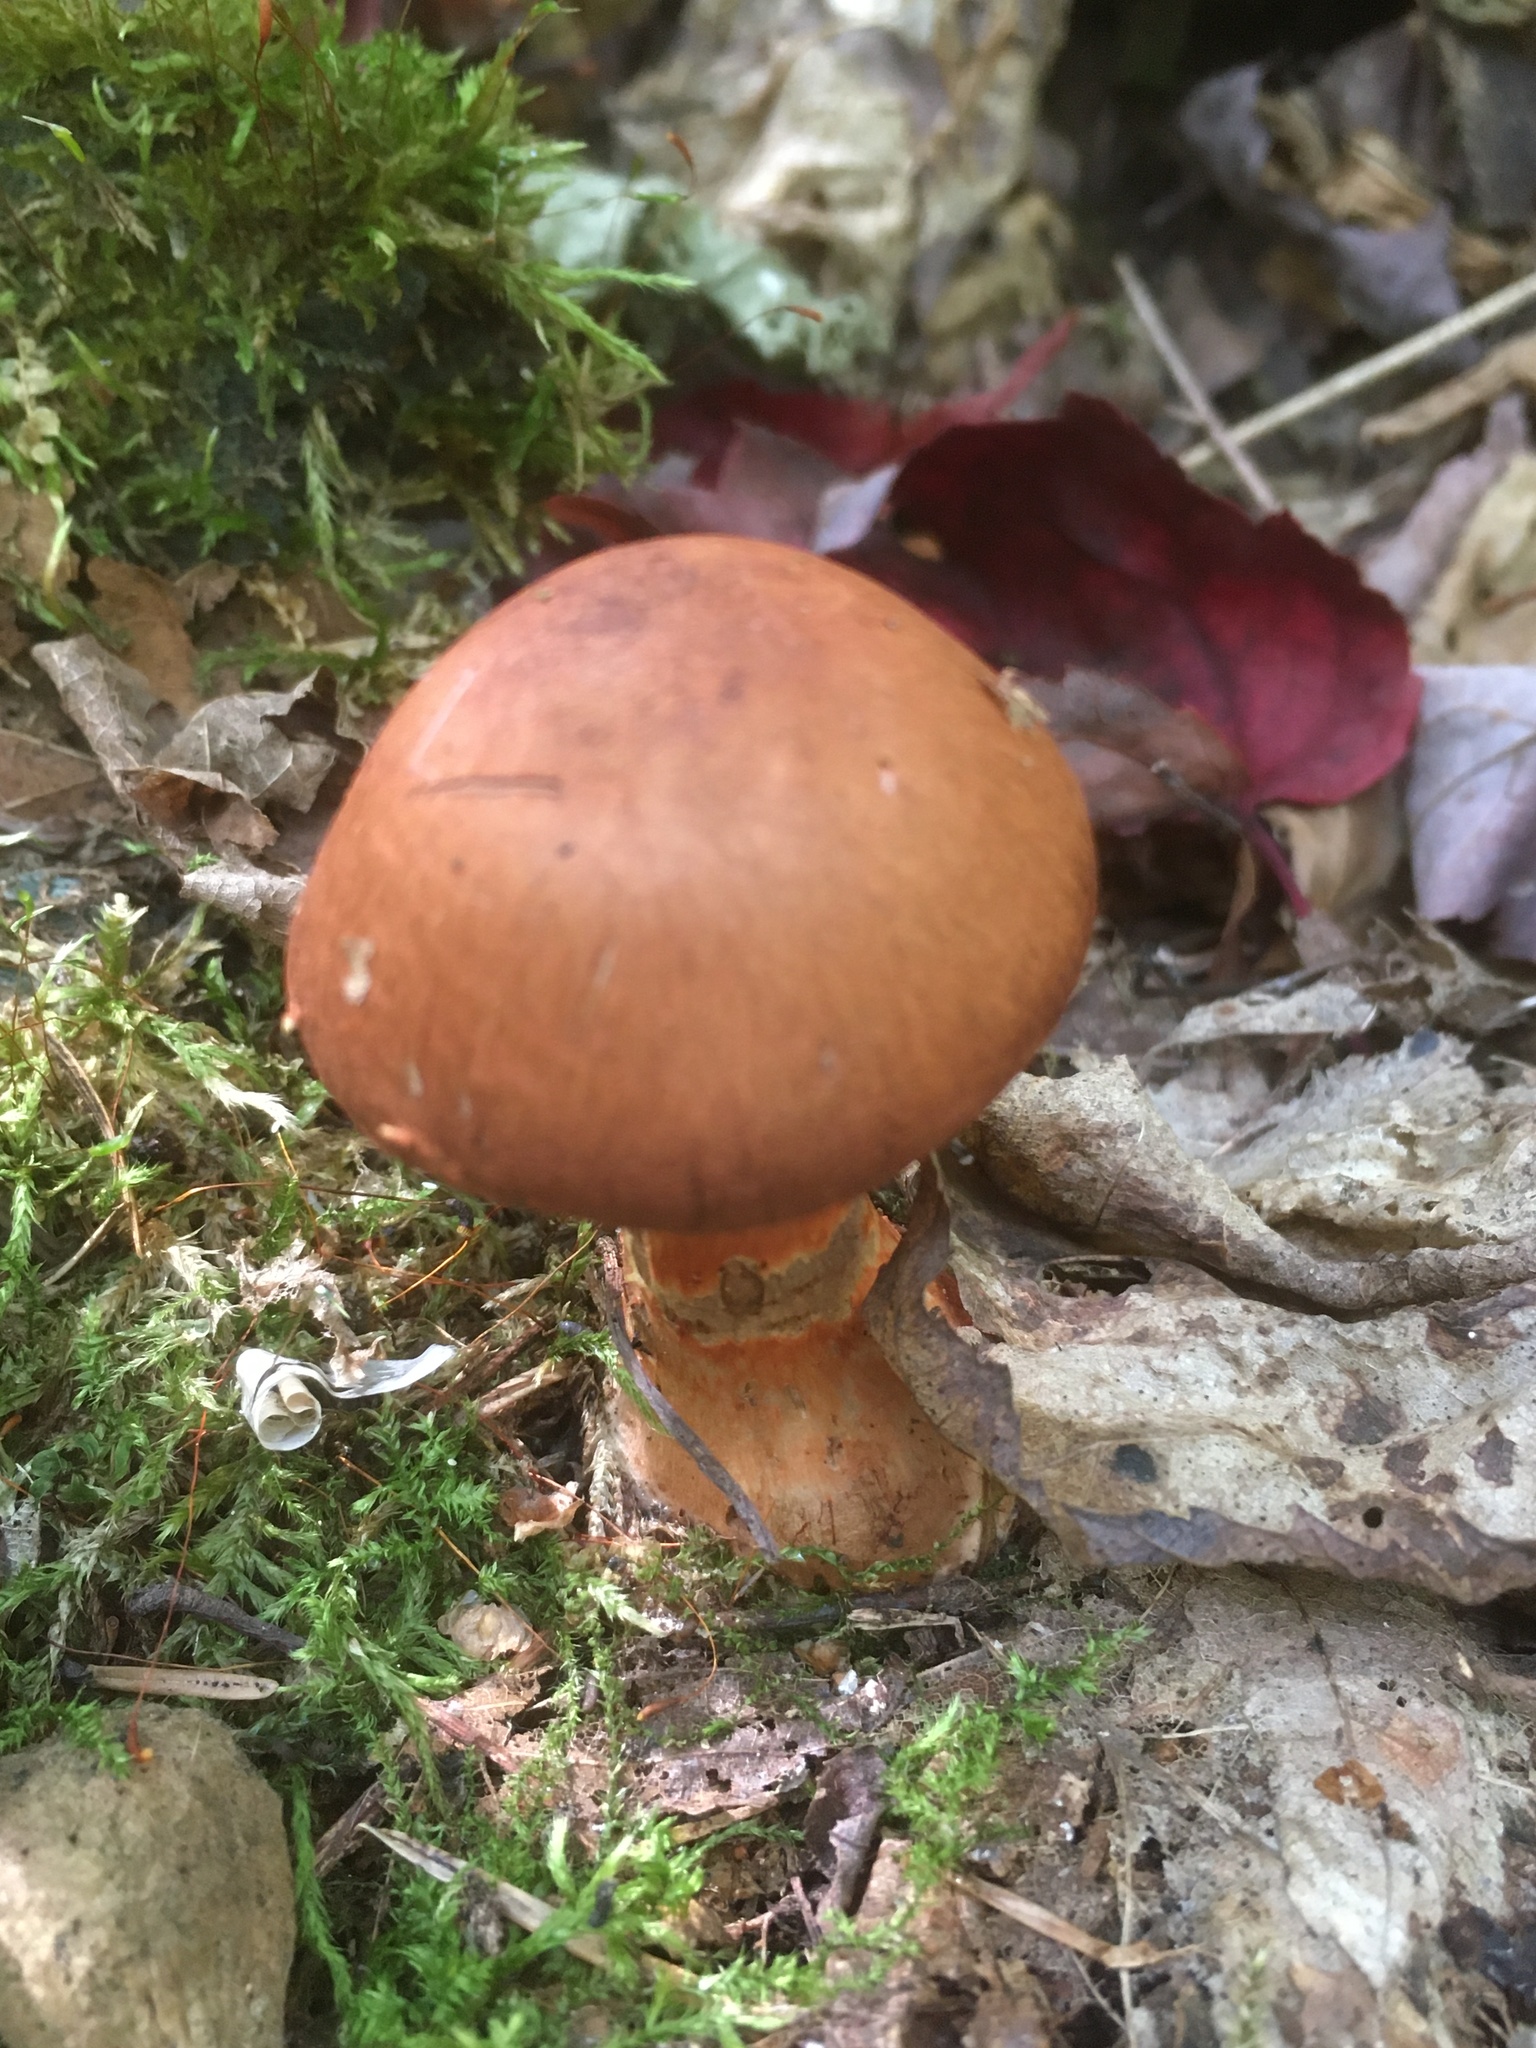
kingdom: Fungi
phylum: Basidiomycota
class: Agaricomycetes
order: Agaricales
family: Cortinariaceae
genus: Cortinarius
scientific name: Cortinarius armillatus
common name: Red banded webcap
